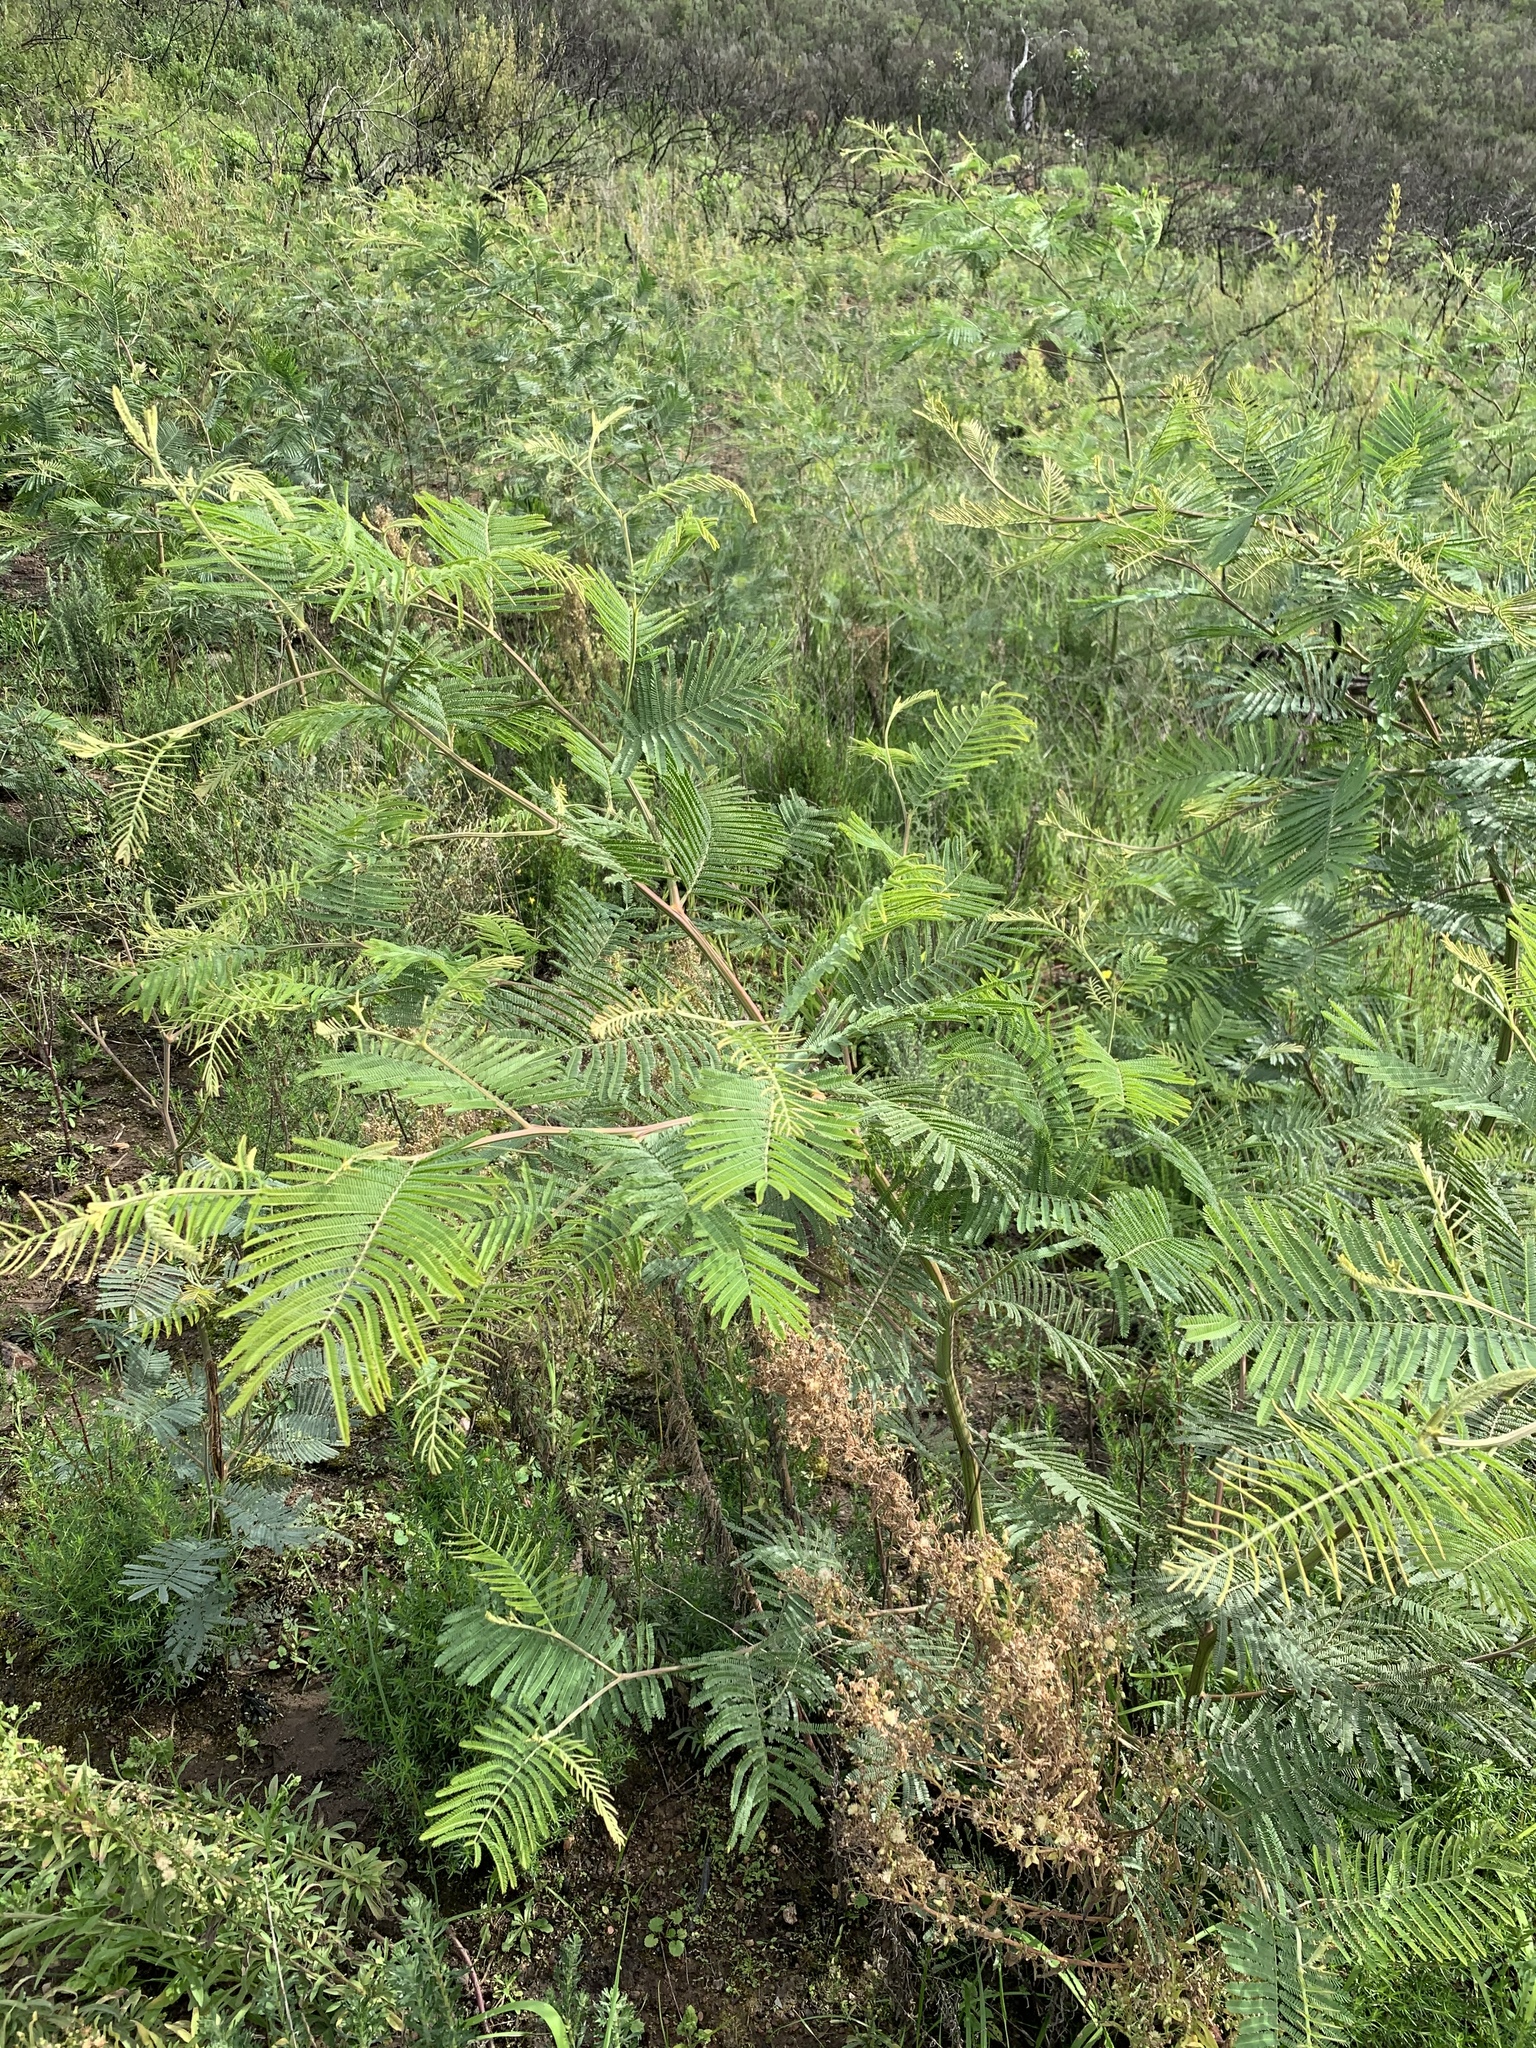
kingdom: Plantae
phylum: Tracheophyta
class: Magnoliopsida
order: Fabales
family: Fabaceae
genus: Acacia
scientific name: Acacia mearnsii
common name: Black wattle
